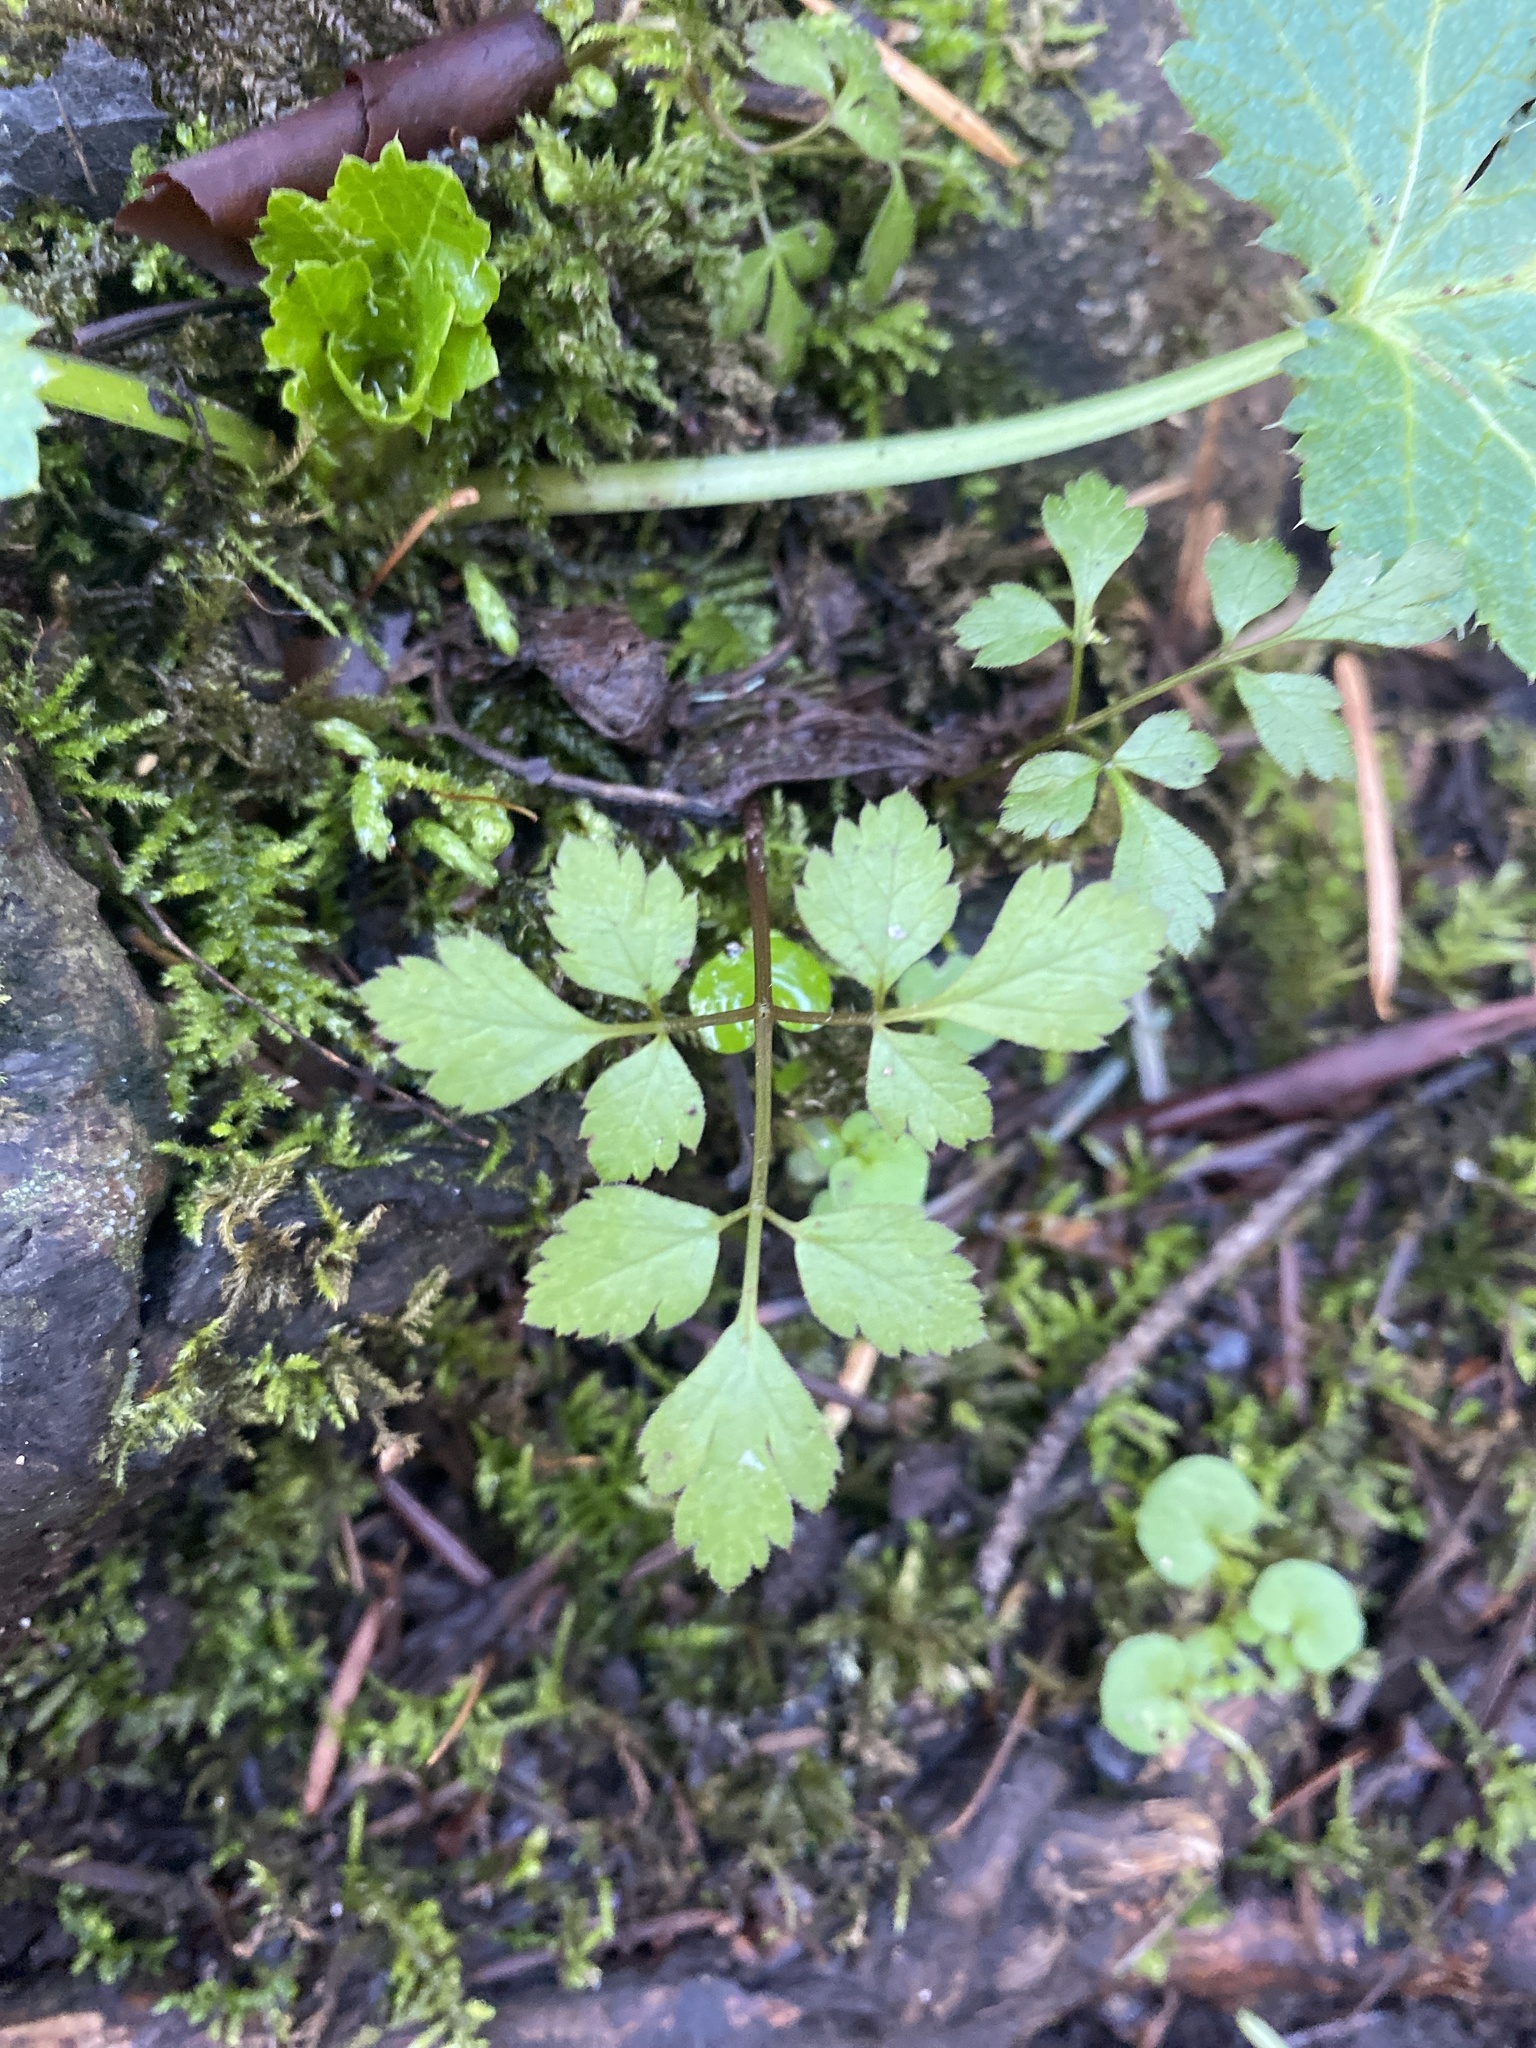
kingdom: Plantae
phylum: Tracheophyta
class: Magnoliopsida
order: Apiales
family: Apiaceae
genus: Osmorhiza
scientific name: Osmorhiza berteroi
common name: Mountain sweet cicely
